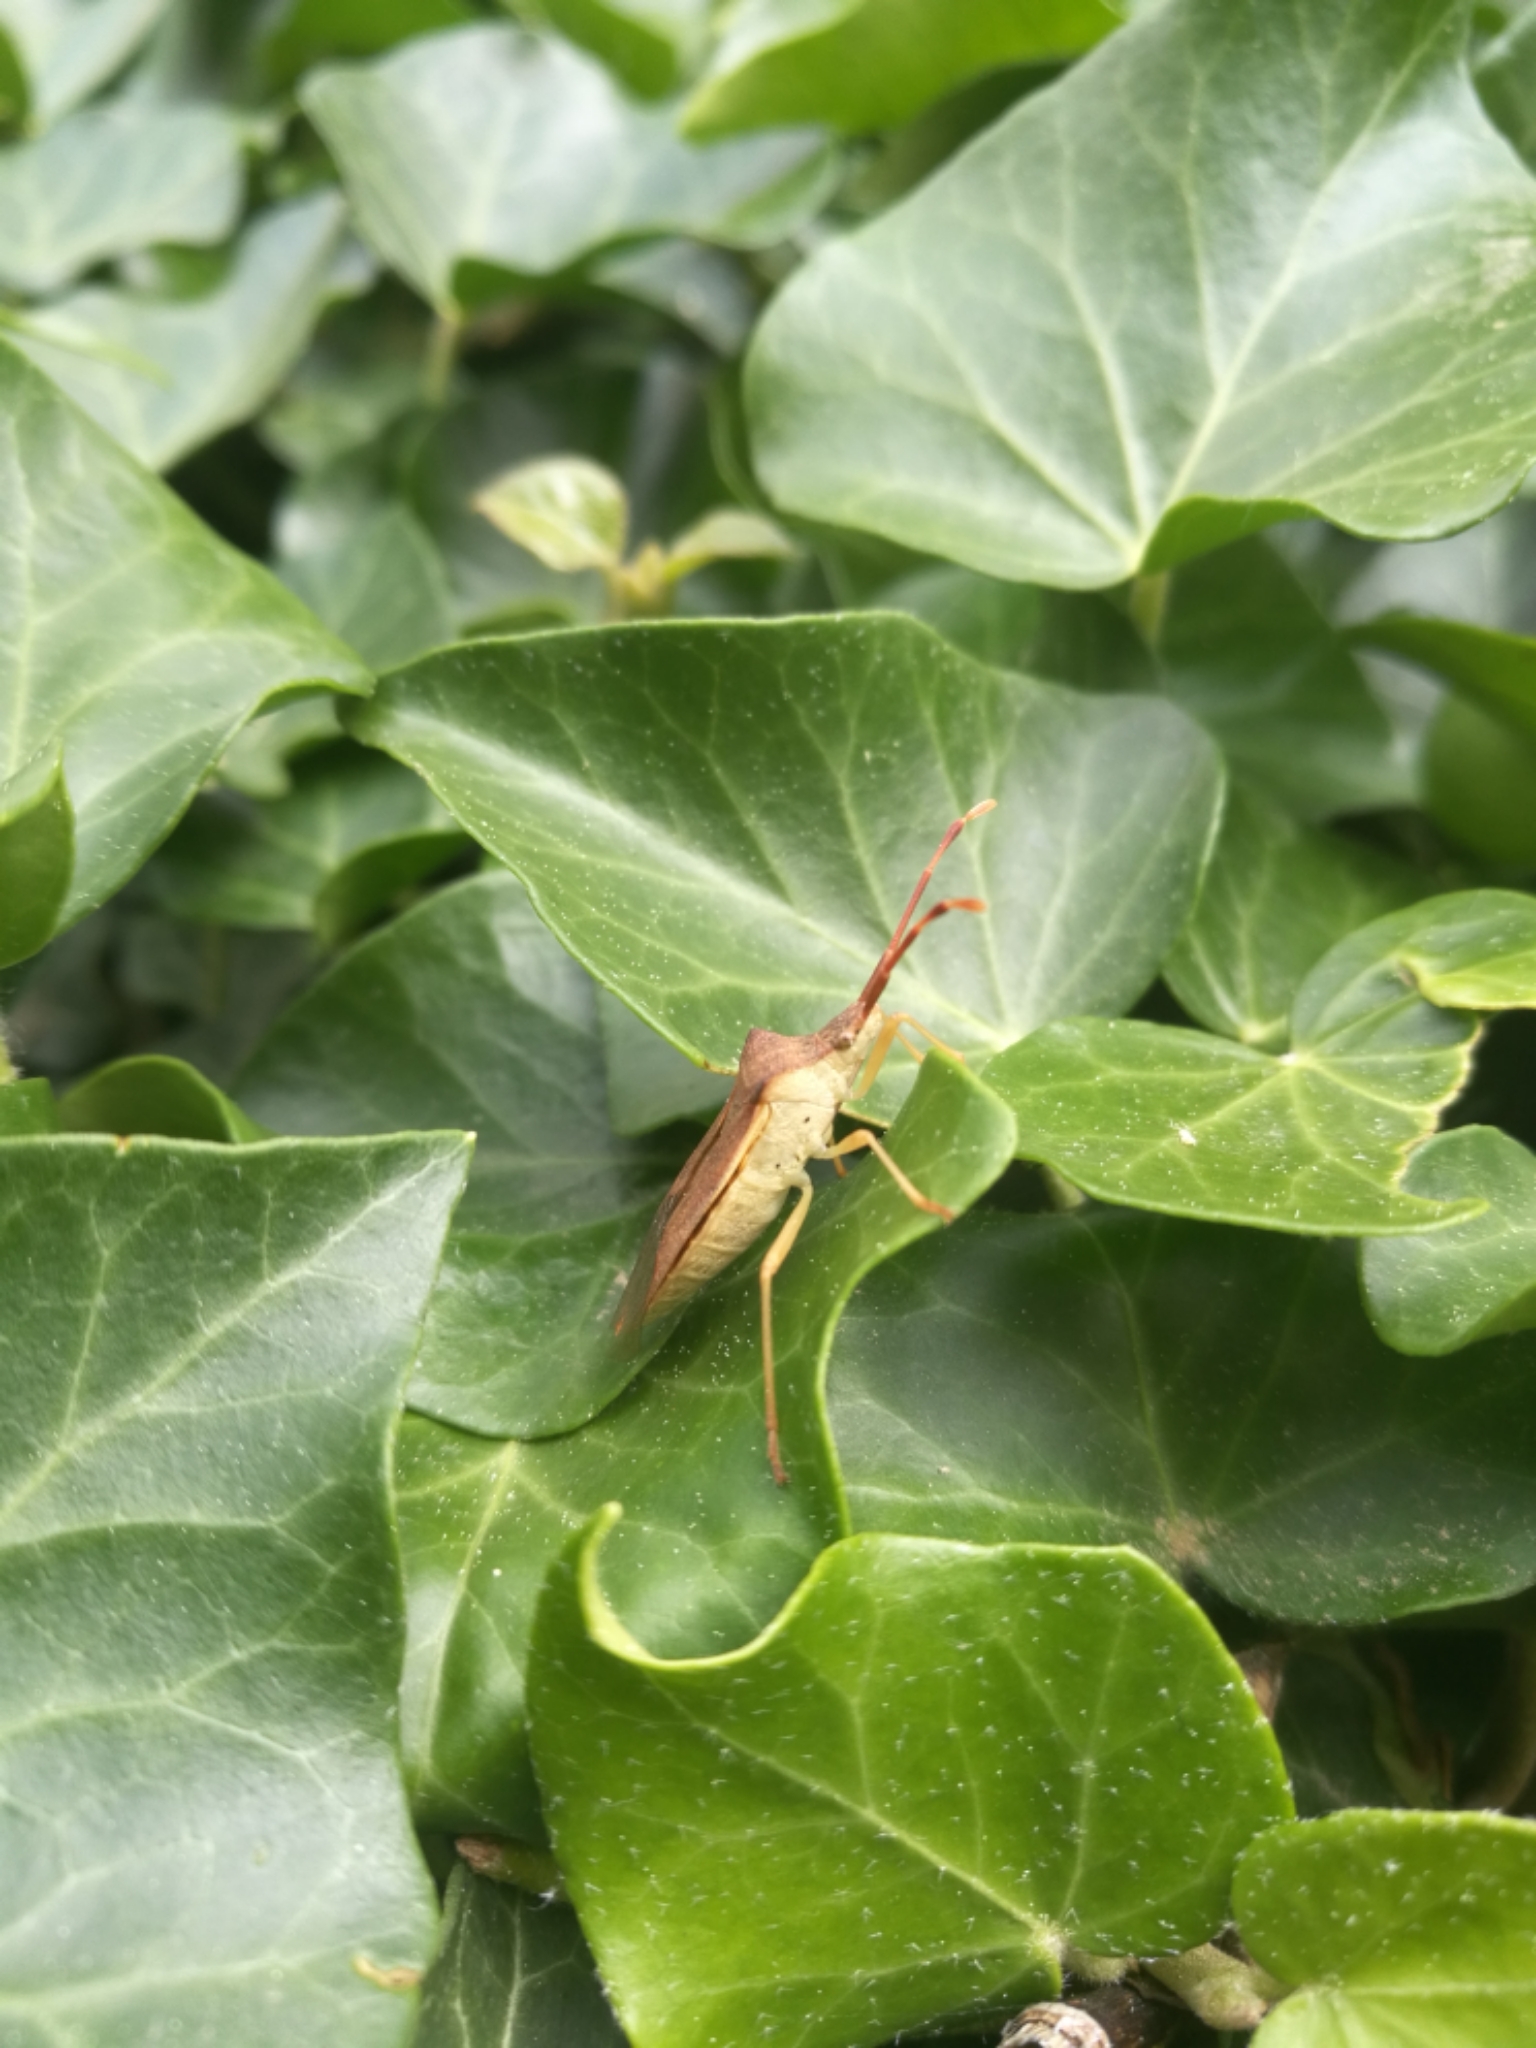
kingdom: Animalia
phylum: Arthropoda
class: Insecta
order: Hemiptera
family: Coreidae
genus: Gonocerus
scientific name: Gonocerus acuteangulatus
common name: Box bug
